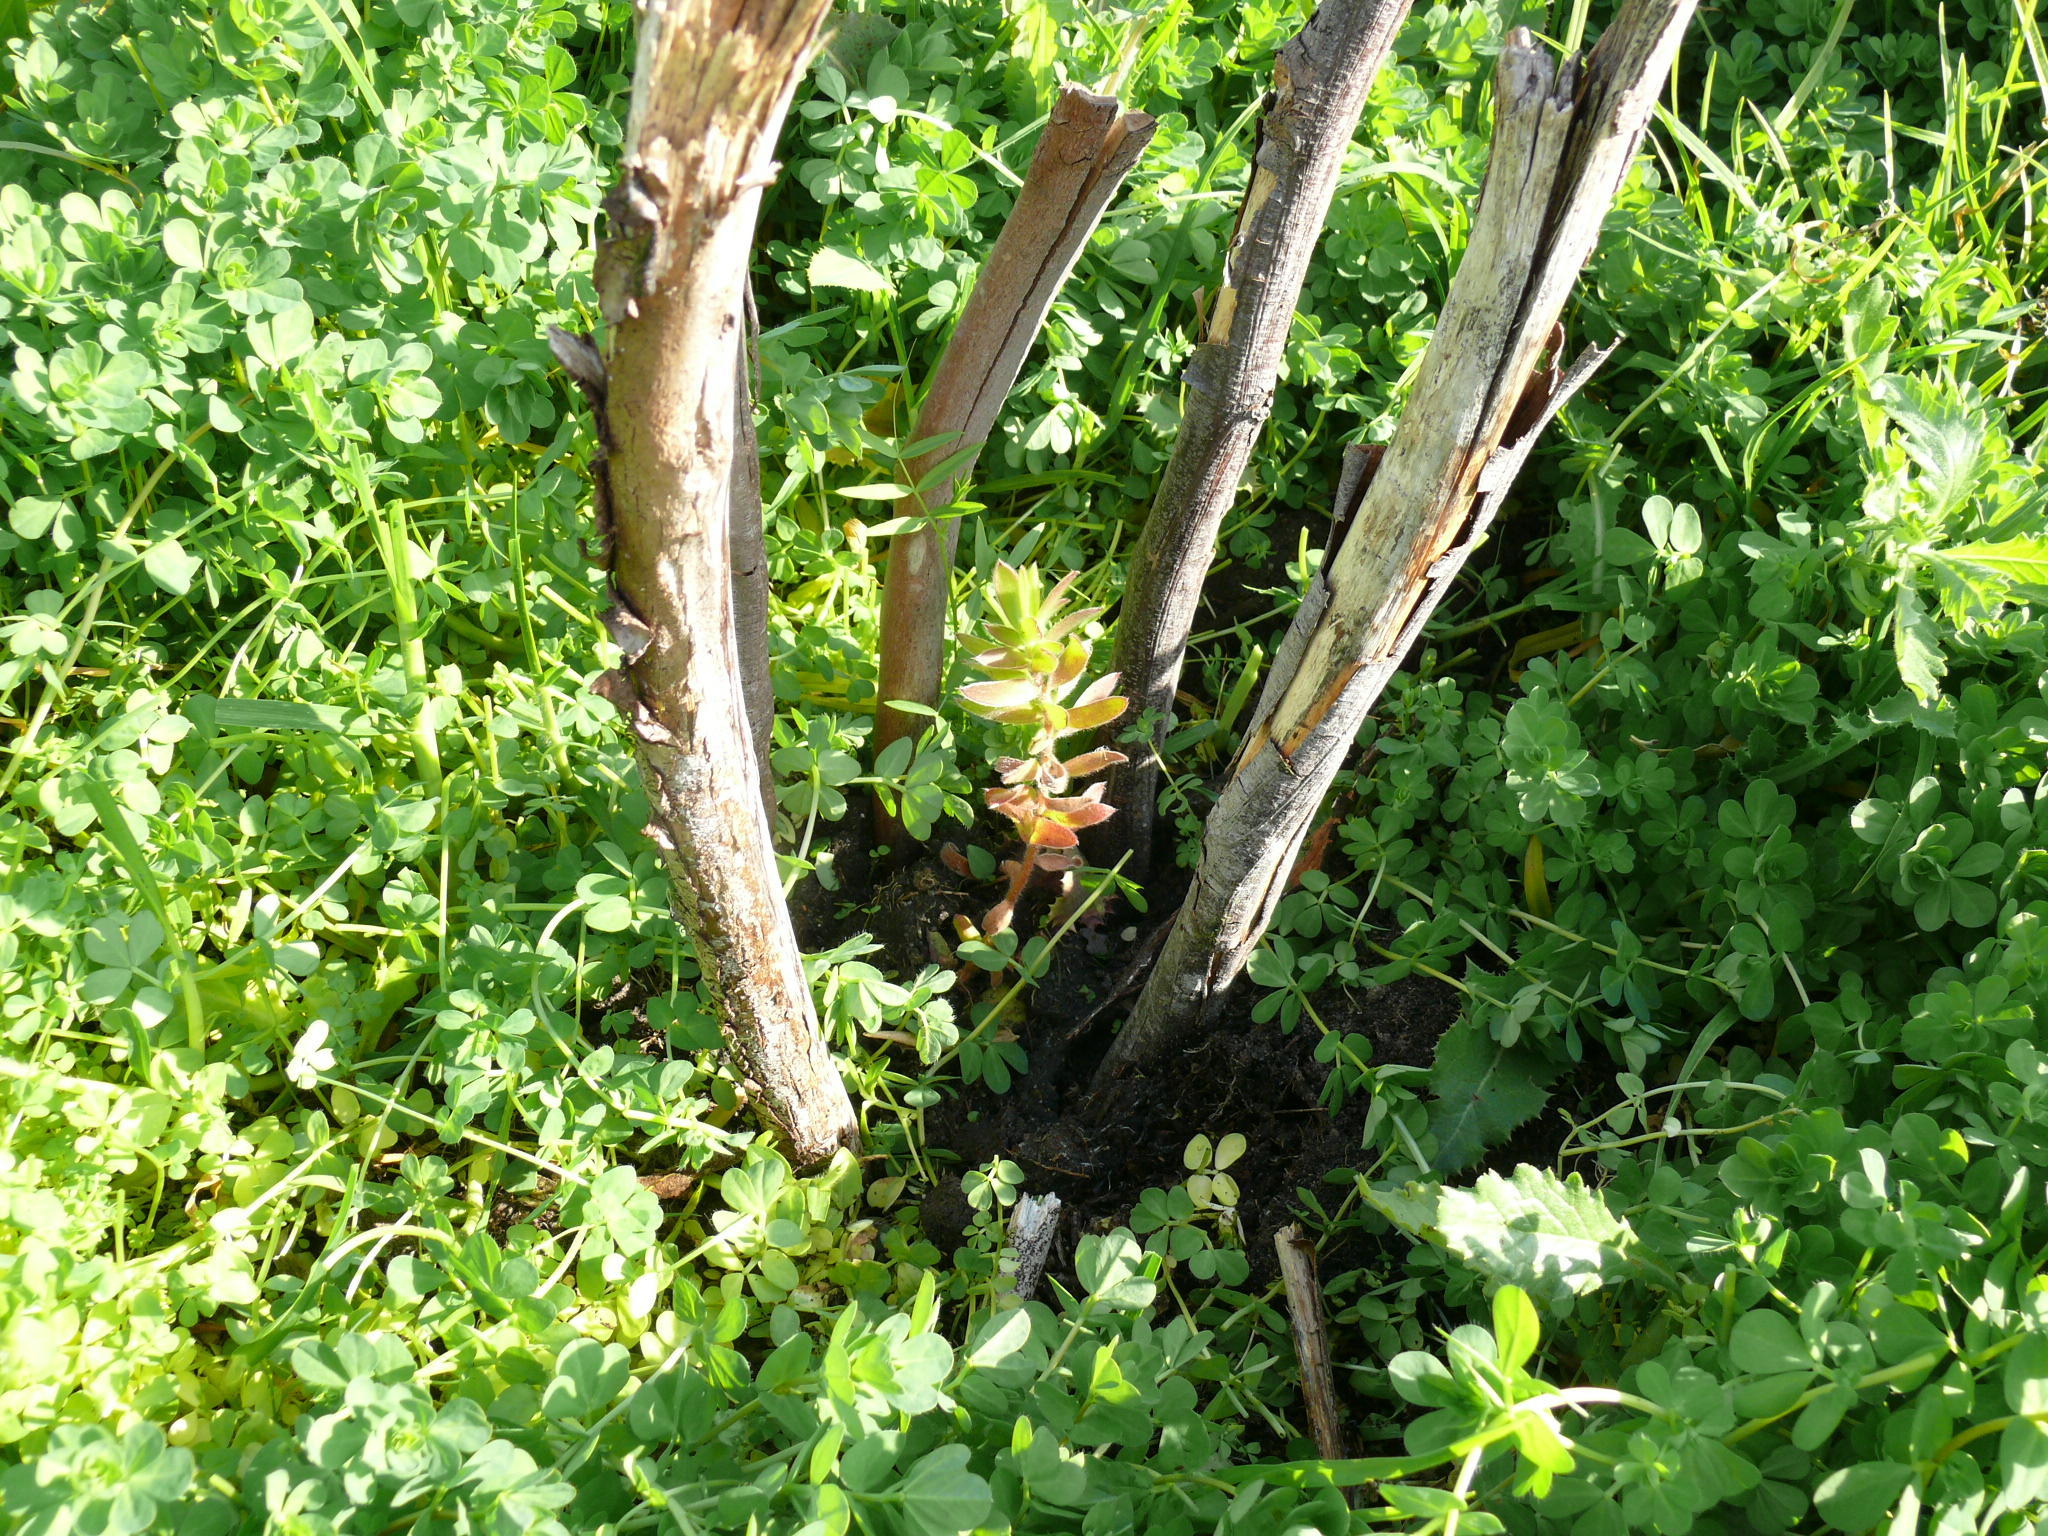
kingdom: Plantae
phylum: Tracheophyta
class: Magnoliopsida
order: Proteales
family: Proteaceae
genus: Leucadendron
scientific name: Leucadendron macowanii
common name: Acacia-leaf conebush
